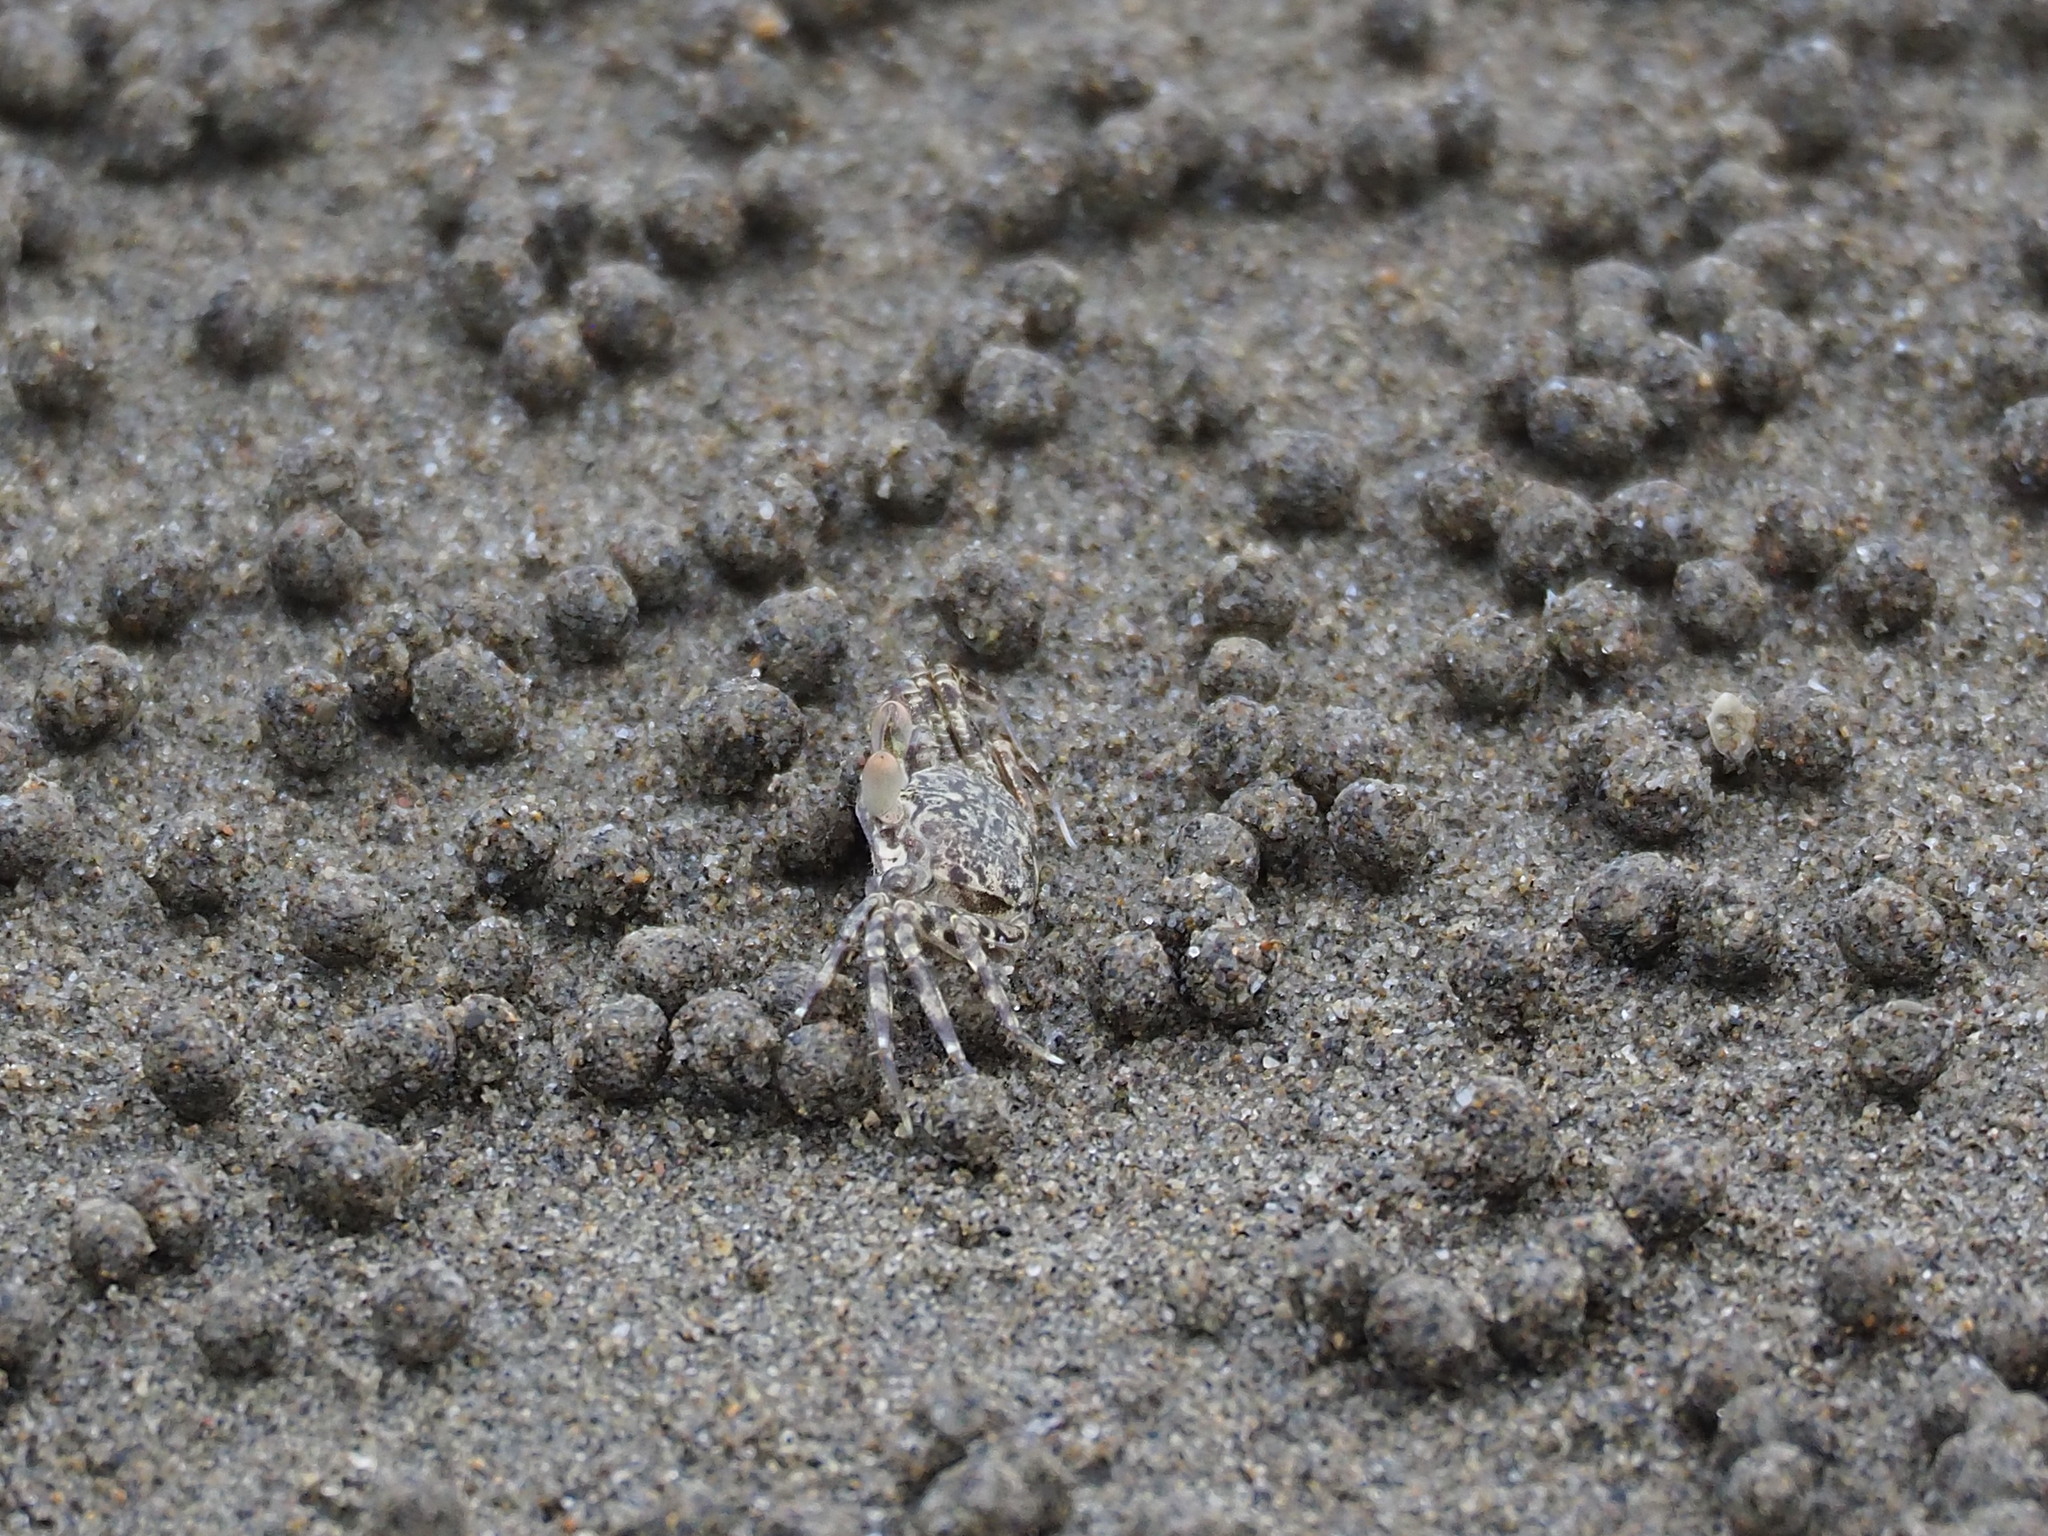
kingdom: Animalia
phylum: Arthropoda
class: Malacostraca
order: Decapoda
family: Ocypodidae
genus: Ocypode
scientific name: Ocypode ceratophthalmus
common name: Indo-pacific ghost crab
